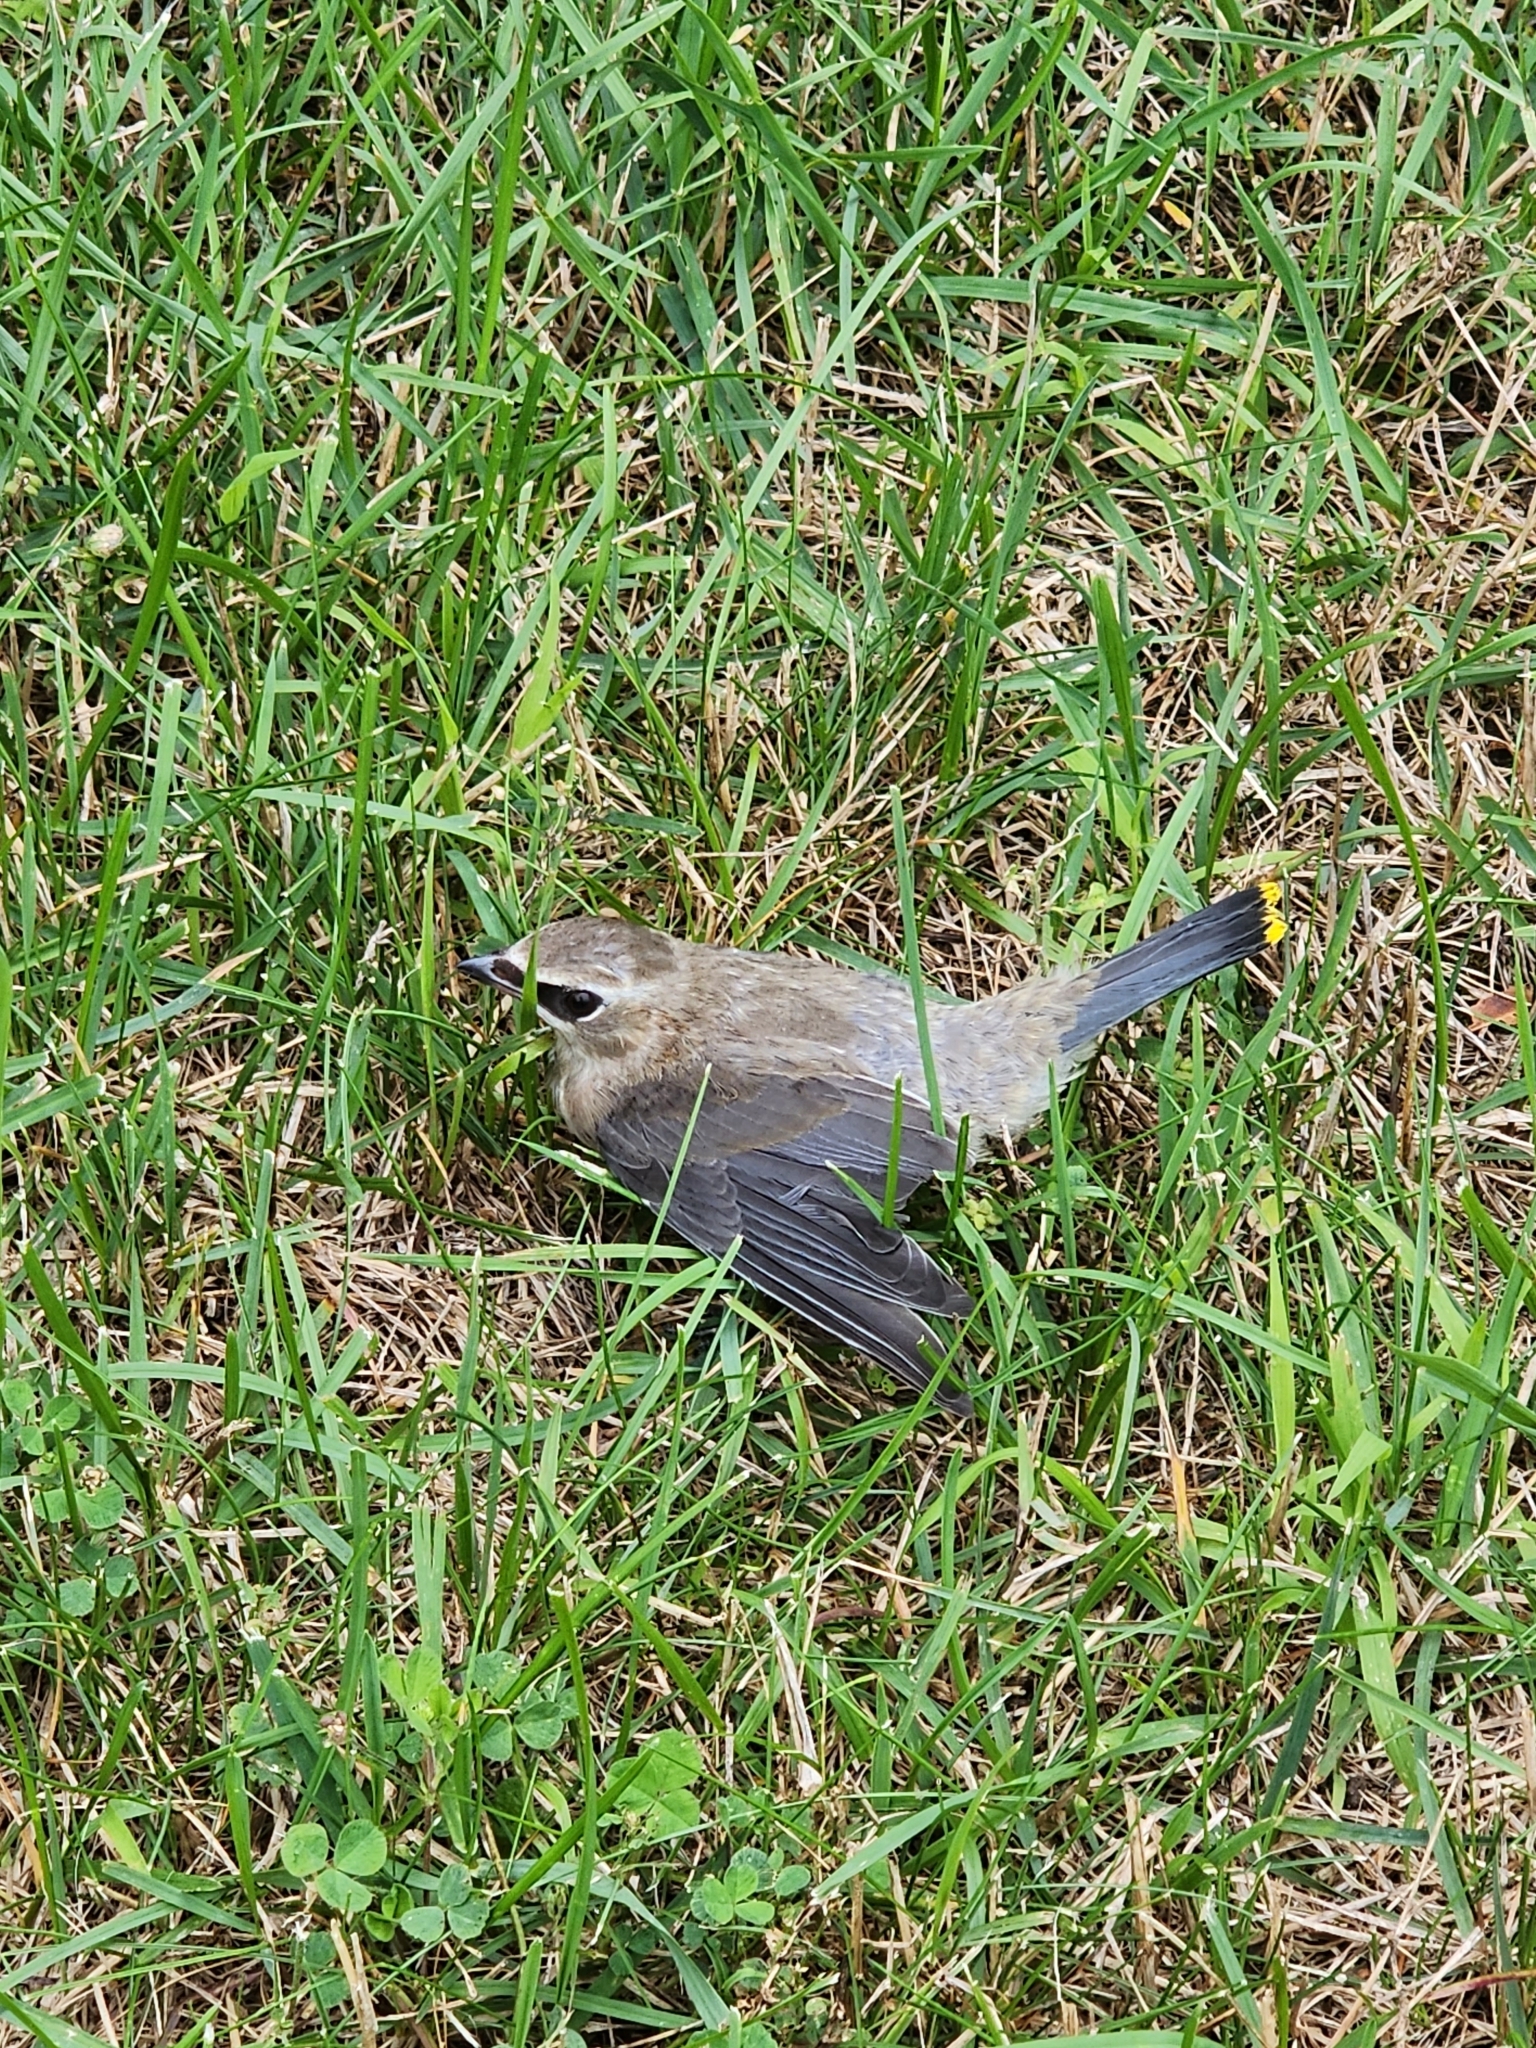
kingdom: Animalia
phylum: Chordata
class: Aves
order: Passeriformes
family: Bombycillidae
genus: Bombycilla
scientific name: Bombycilla cedrorum
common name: Cedar waxwing
